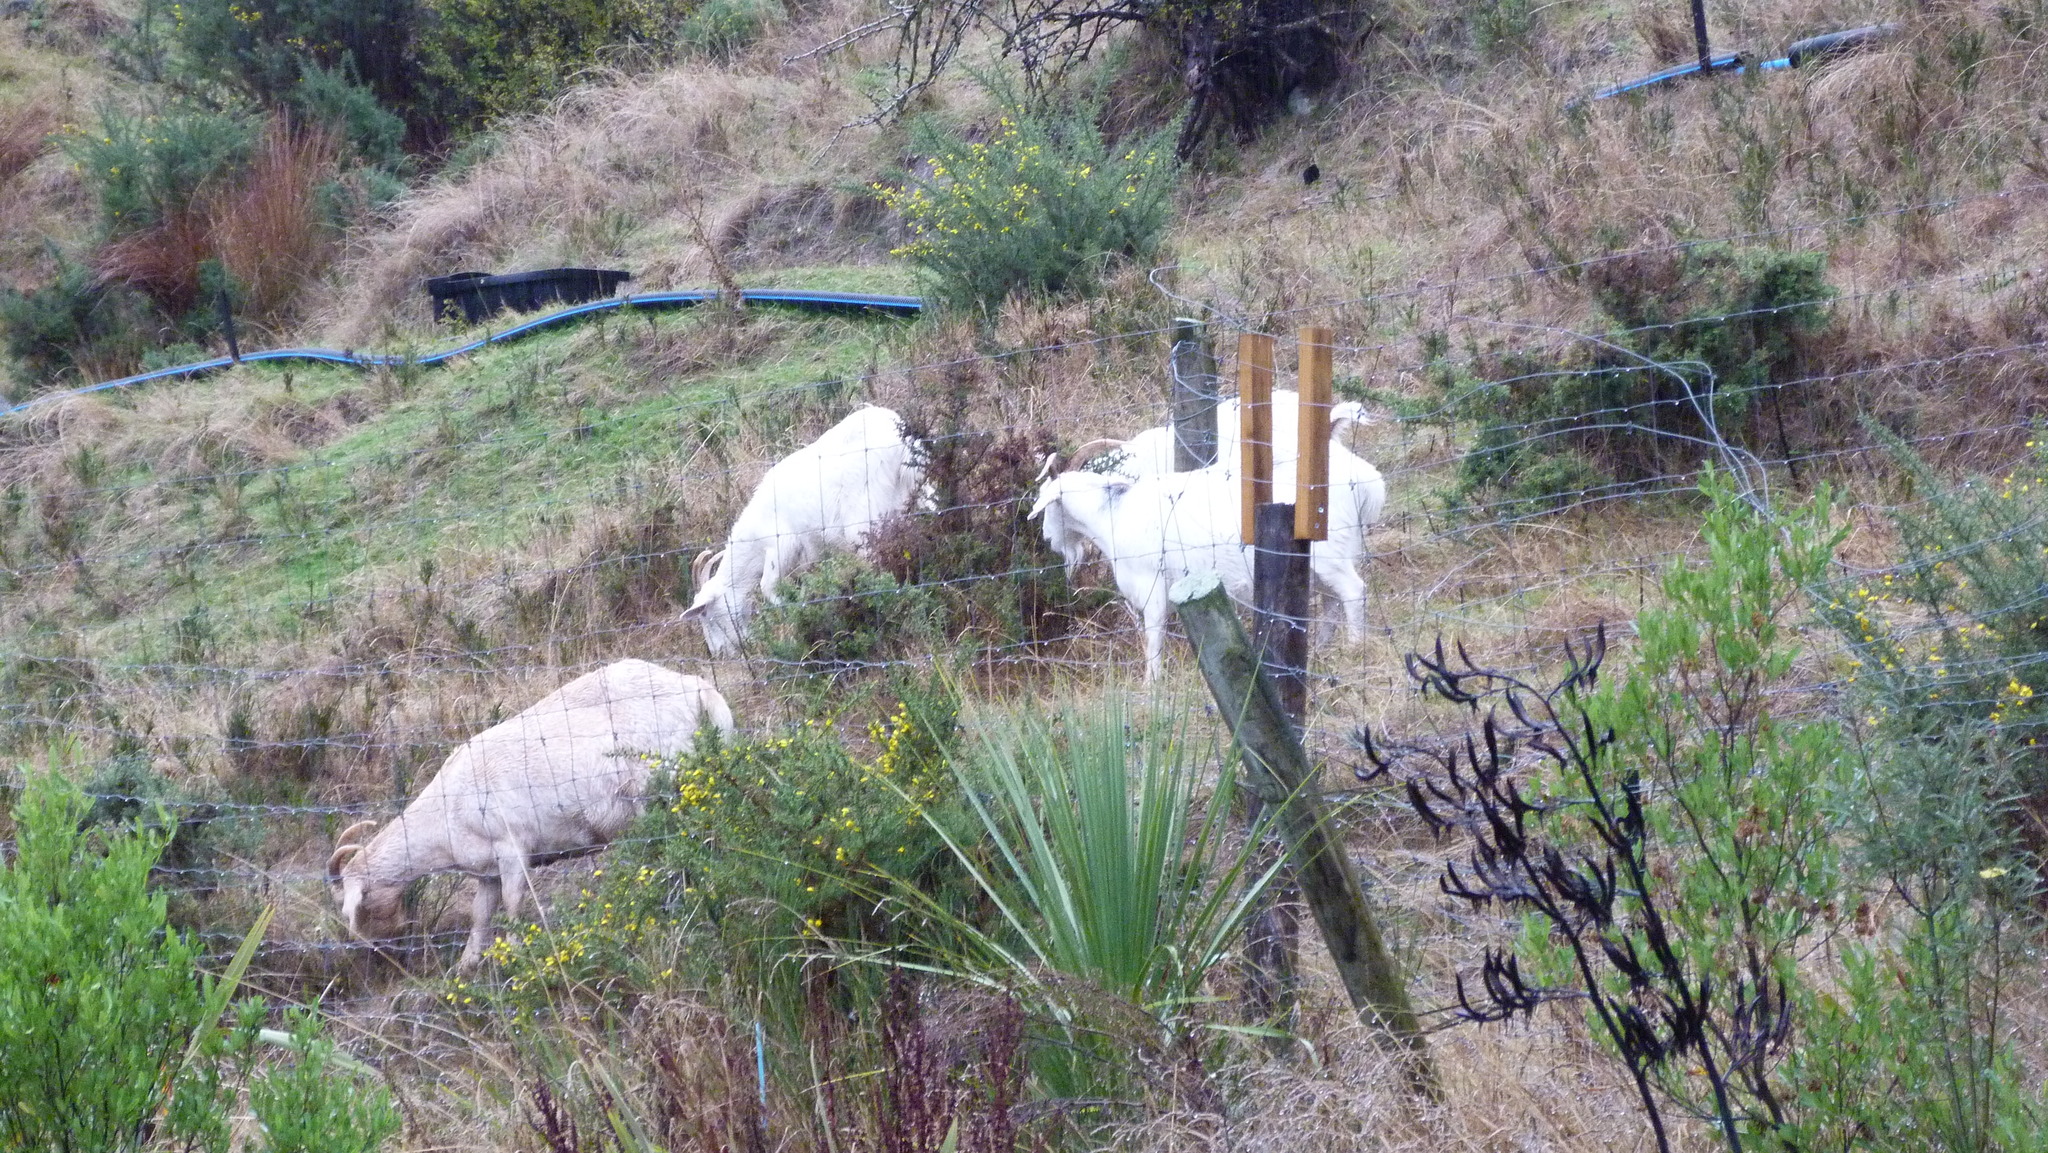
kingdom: Animalia
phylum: Chordata
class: Mammalia
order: Artiodactyla
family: Bovidae
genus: Capra
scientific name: Capra hircus
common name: Domestic goat
